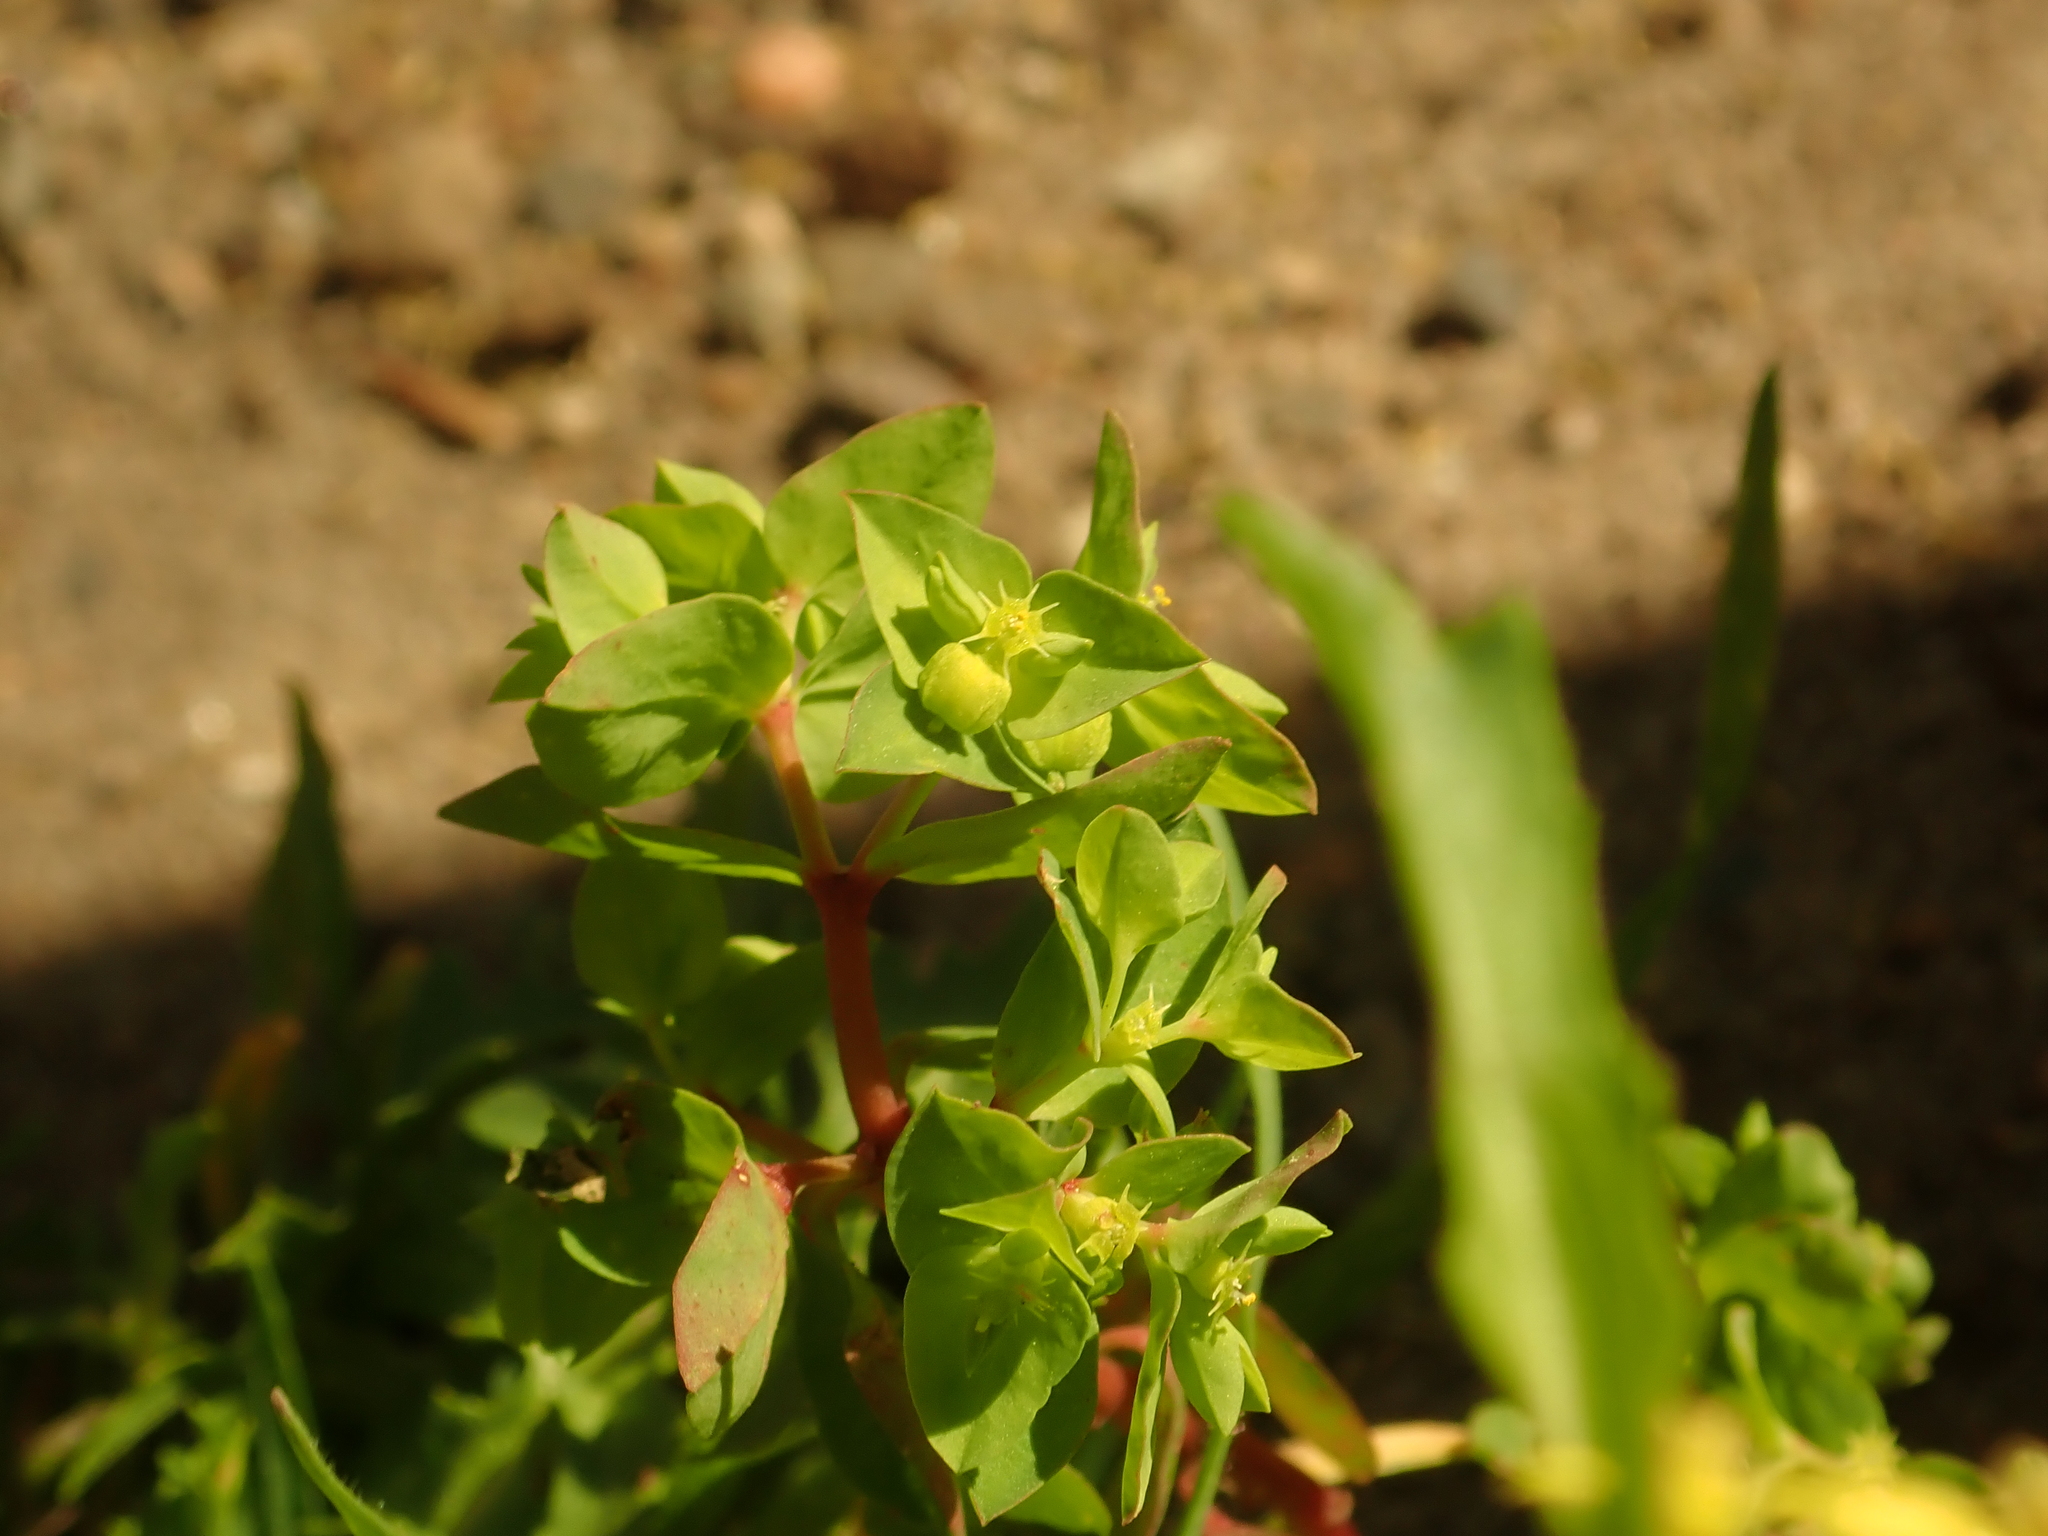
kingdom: Plantae
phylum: Tracheophyta
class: Magnoliopsida
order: Malpighiales
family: Euphorbiaceae
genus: Euphorbia
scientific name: Euphorbia peplus
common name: Petty spurge
